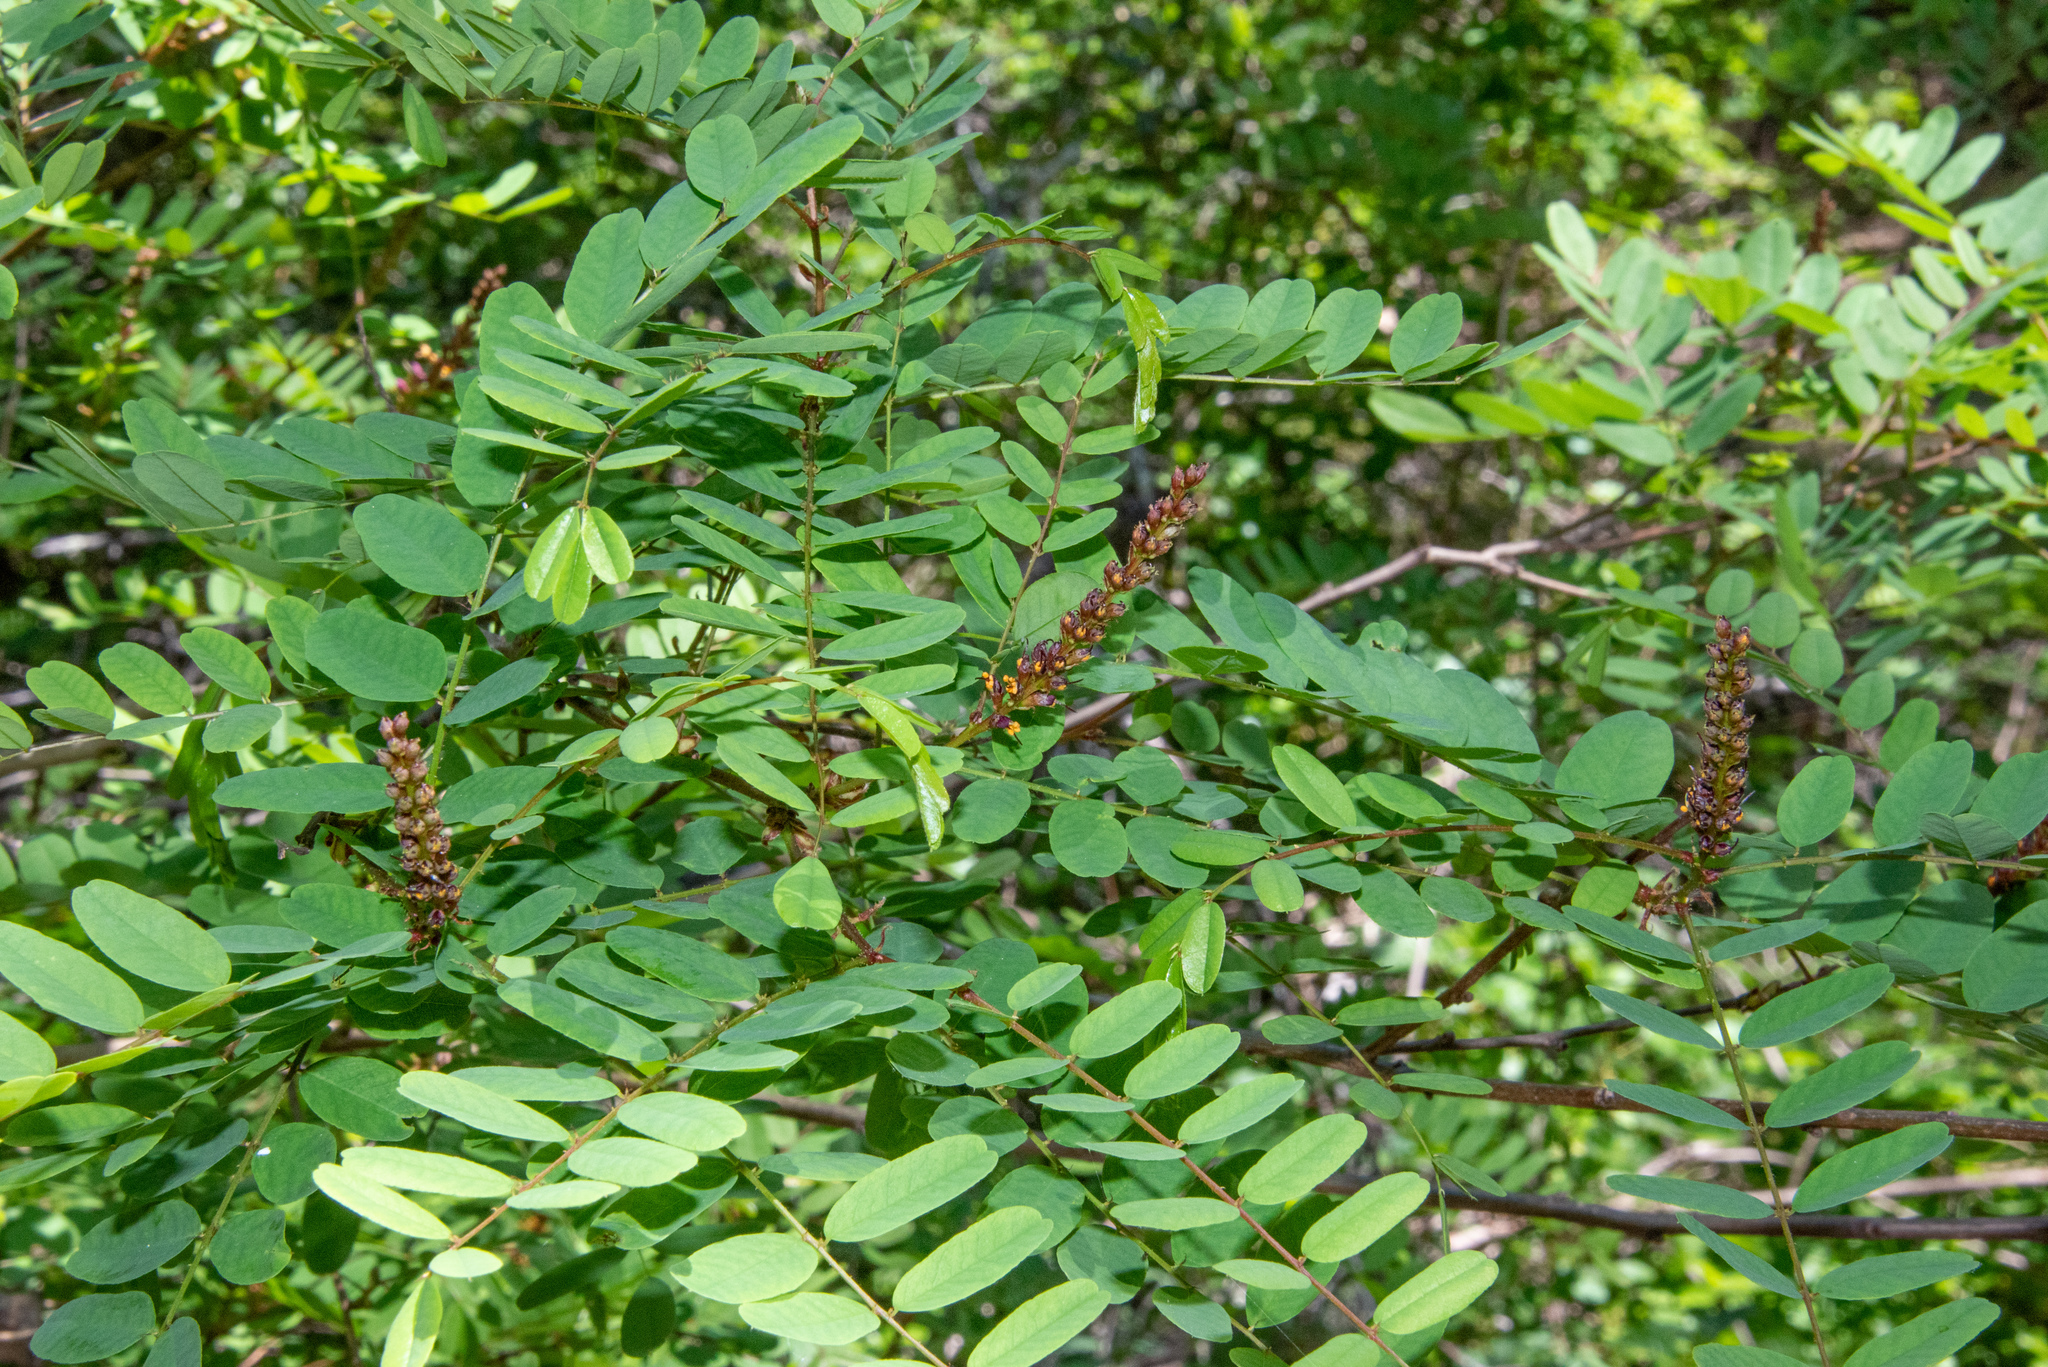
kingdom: Plantae
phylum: Tracheophyta
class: Magnoliopsida
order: Fabales
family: Fabaceae
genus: Amorpha
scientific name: Amorpha californica
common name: California indigobush
